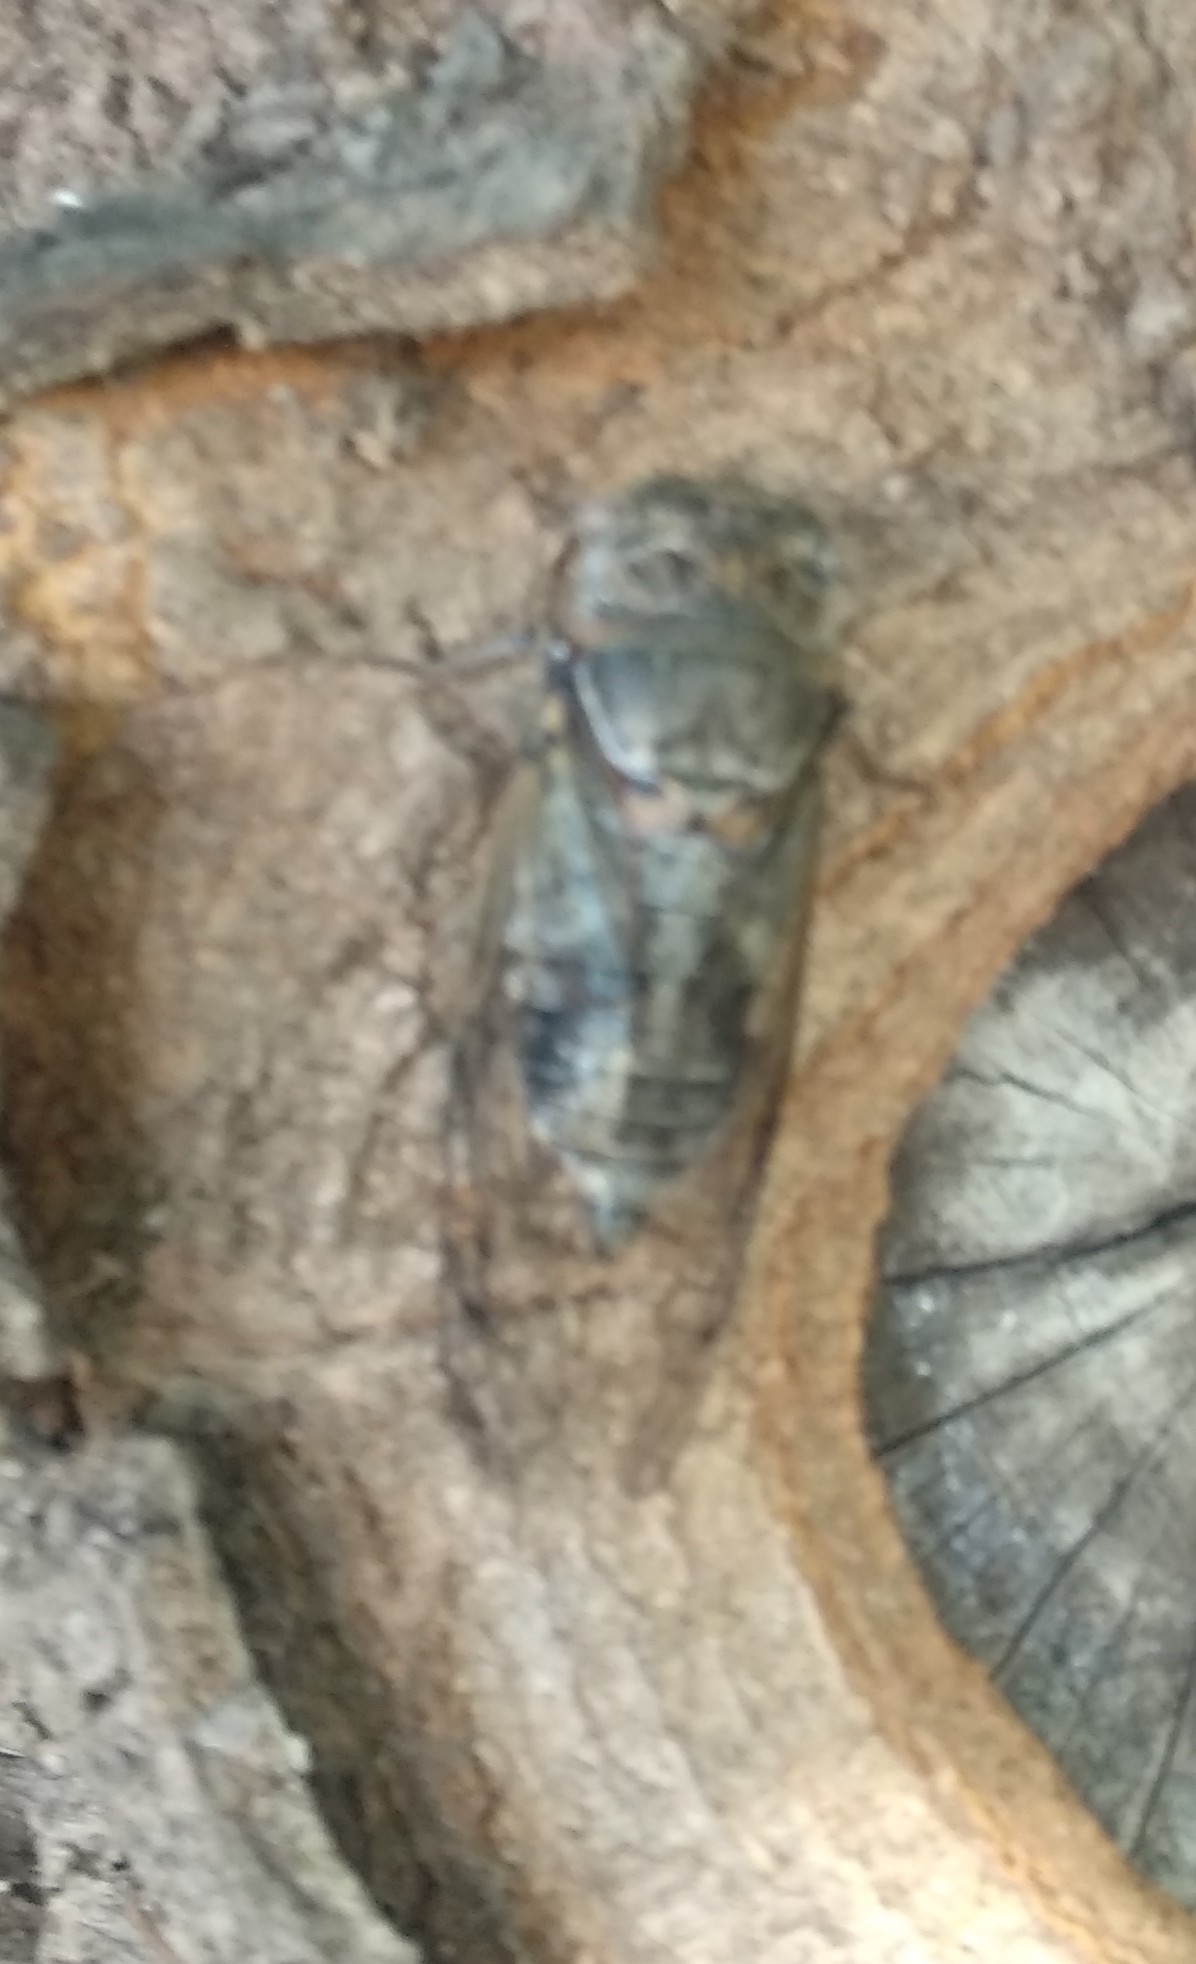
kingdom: Animalia
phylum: Arthropoda
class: Insecta
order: Hemiptera
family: Cicadidae
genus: Lyristes
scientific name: Lyristes plebejus
